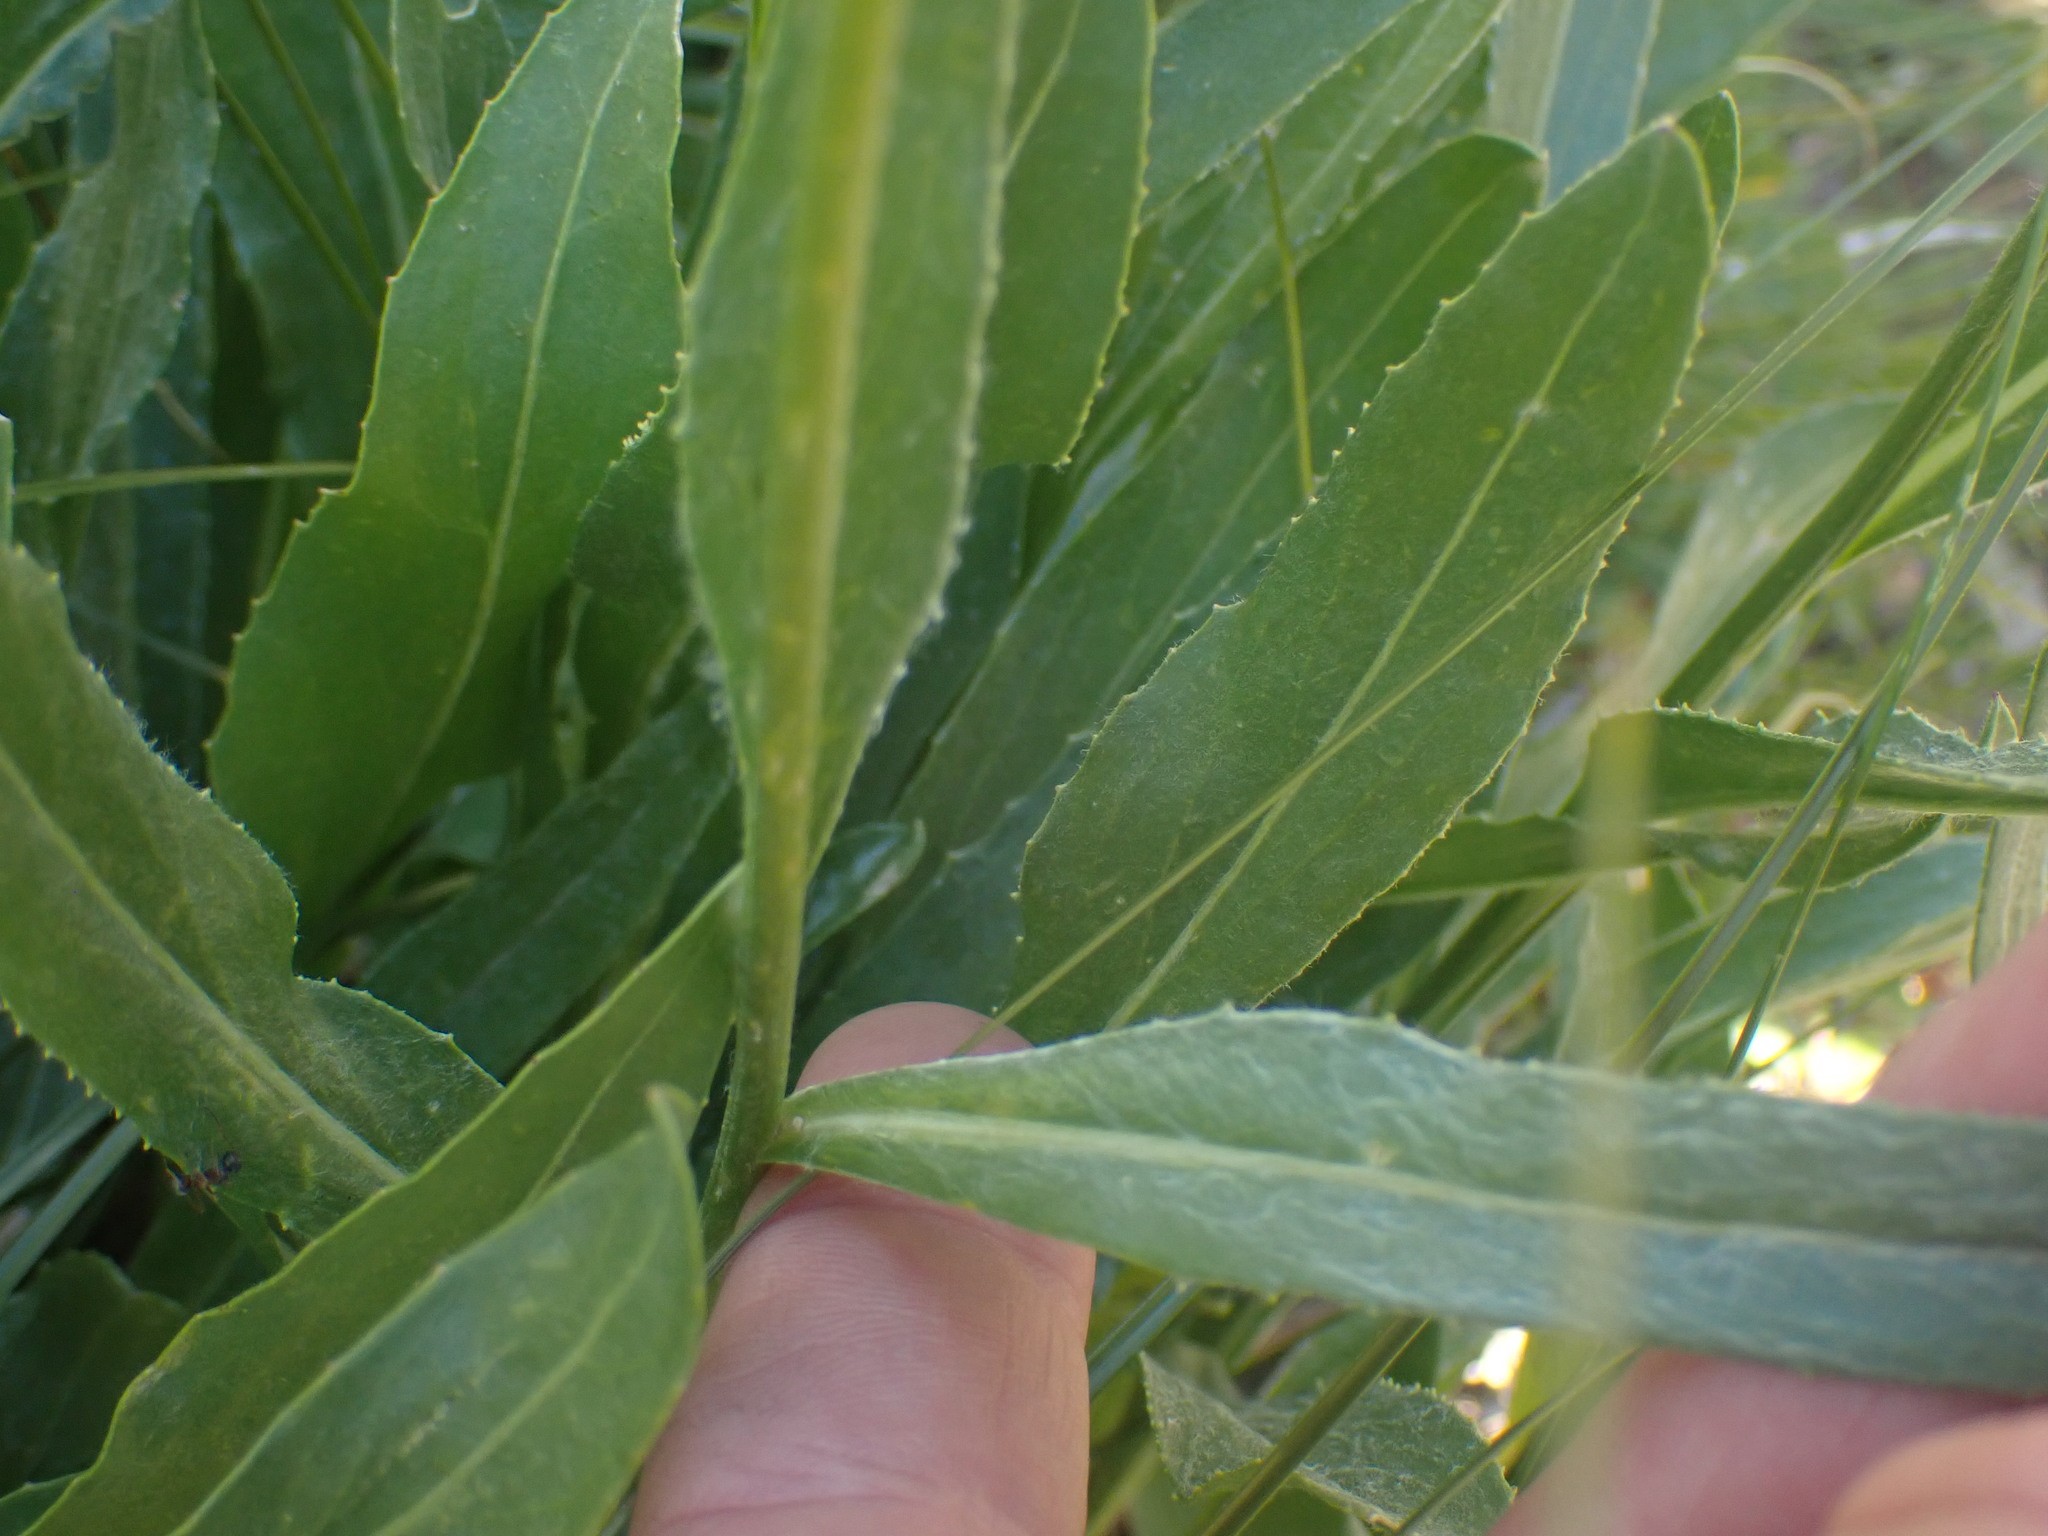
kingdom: Plantae
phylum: Tracheophyta
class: Magnoliopsida
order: Asterales
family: Asteraceae
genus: Senecio
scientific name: Senecio megacephalus
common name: Large-flowered ragwort
